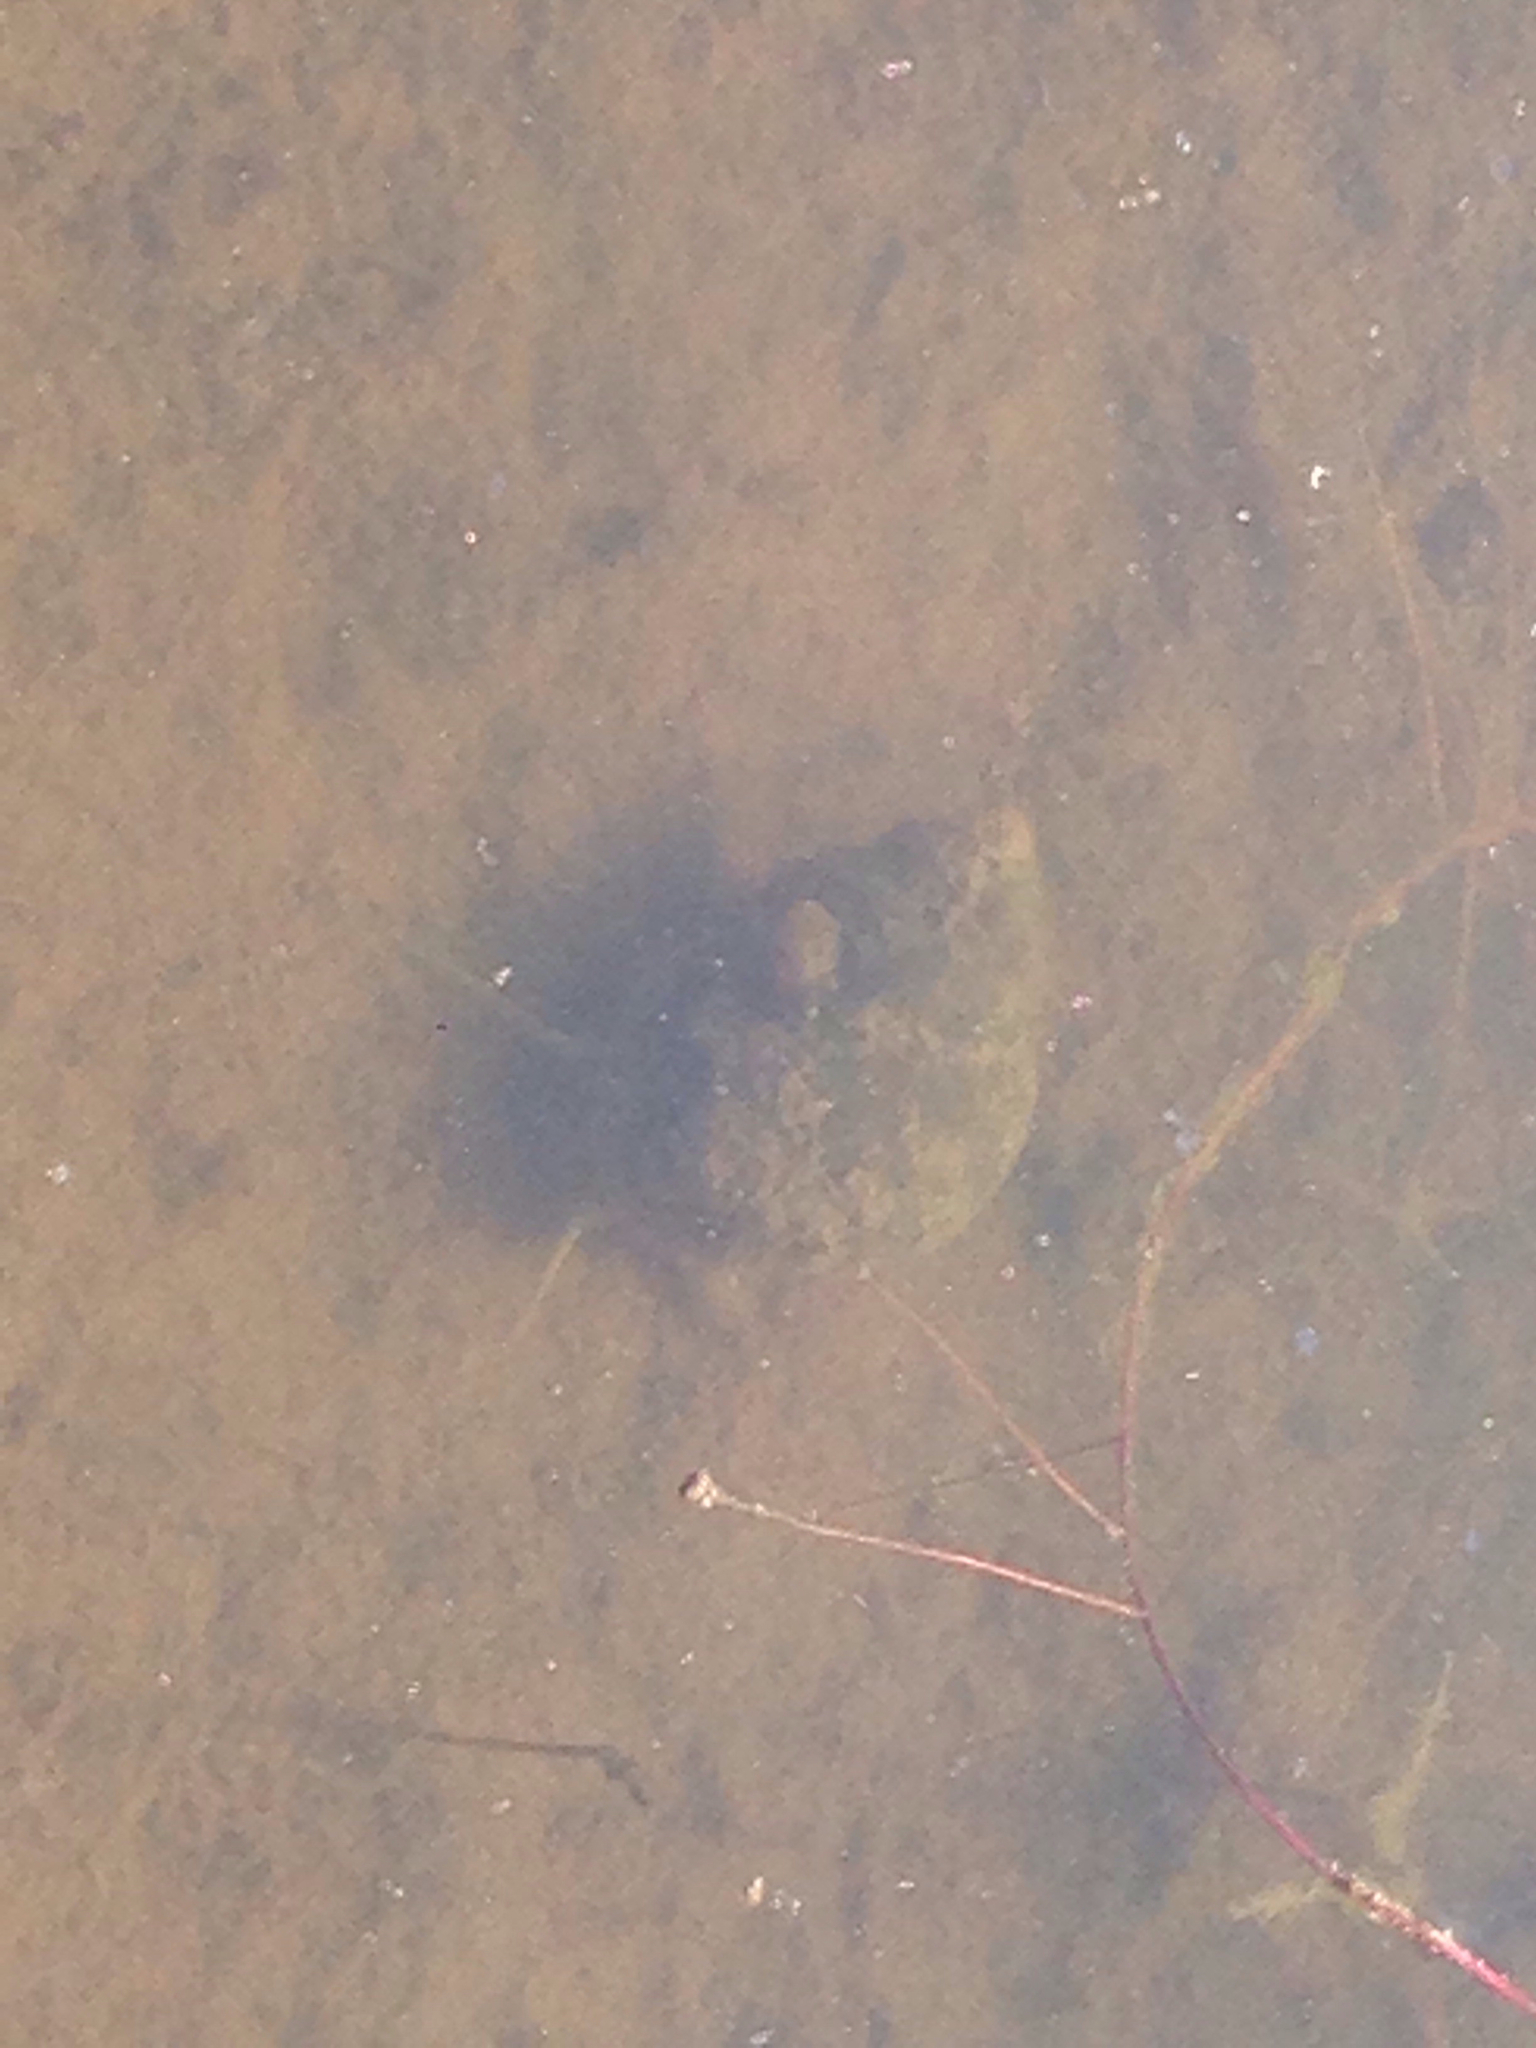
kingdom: Animalia
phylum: Mollusca
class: Gastropoda
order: Architaenioglossa
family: Viviparidae
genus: Cipangopaludina
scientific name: Cipangopaludina chinensis
